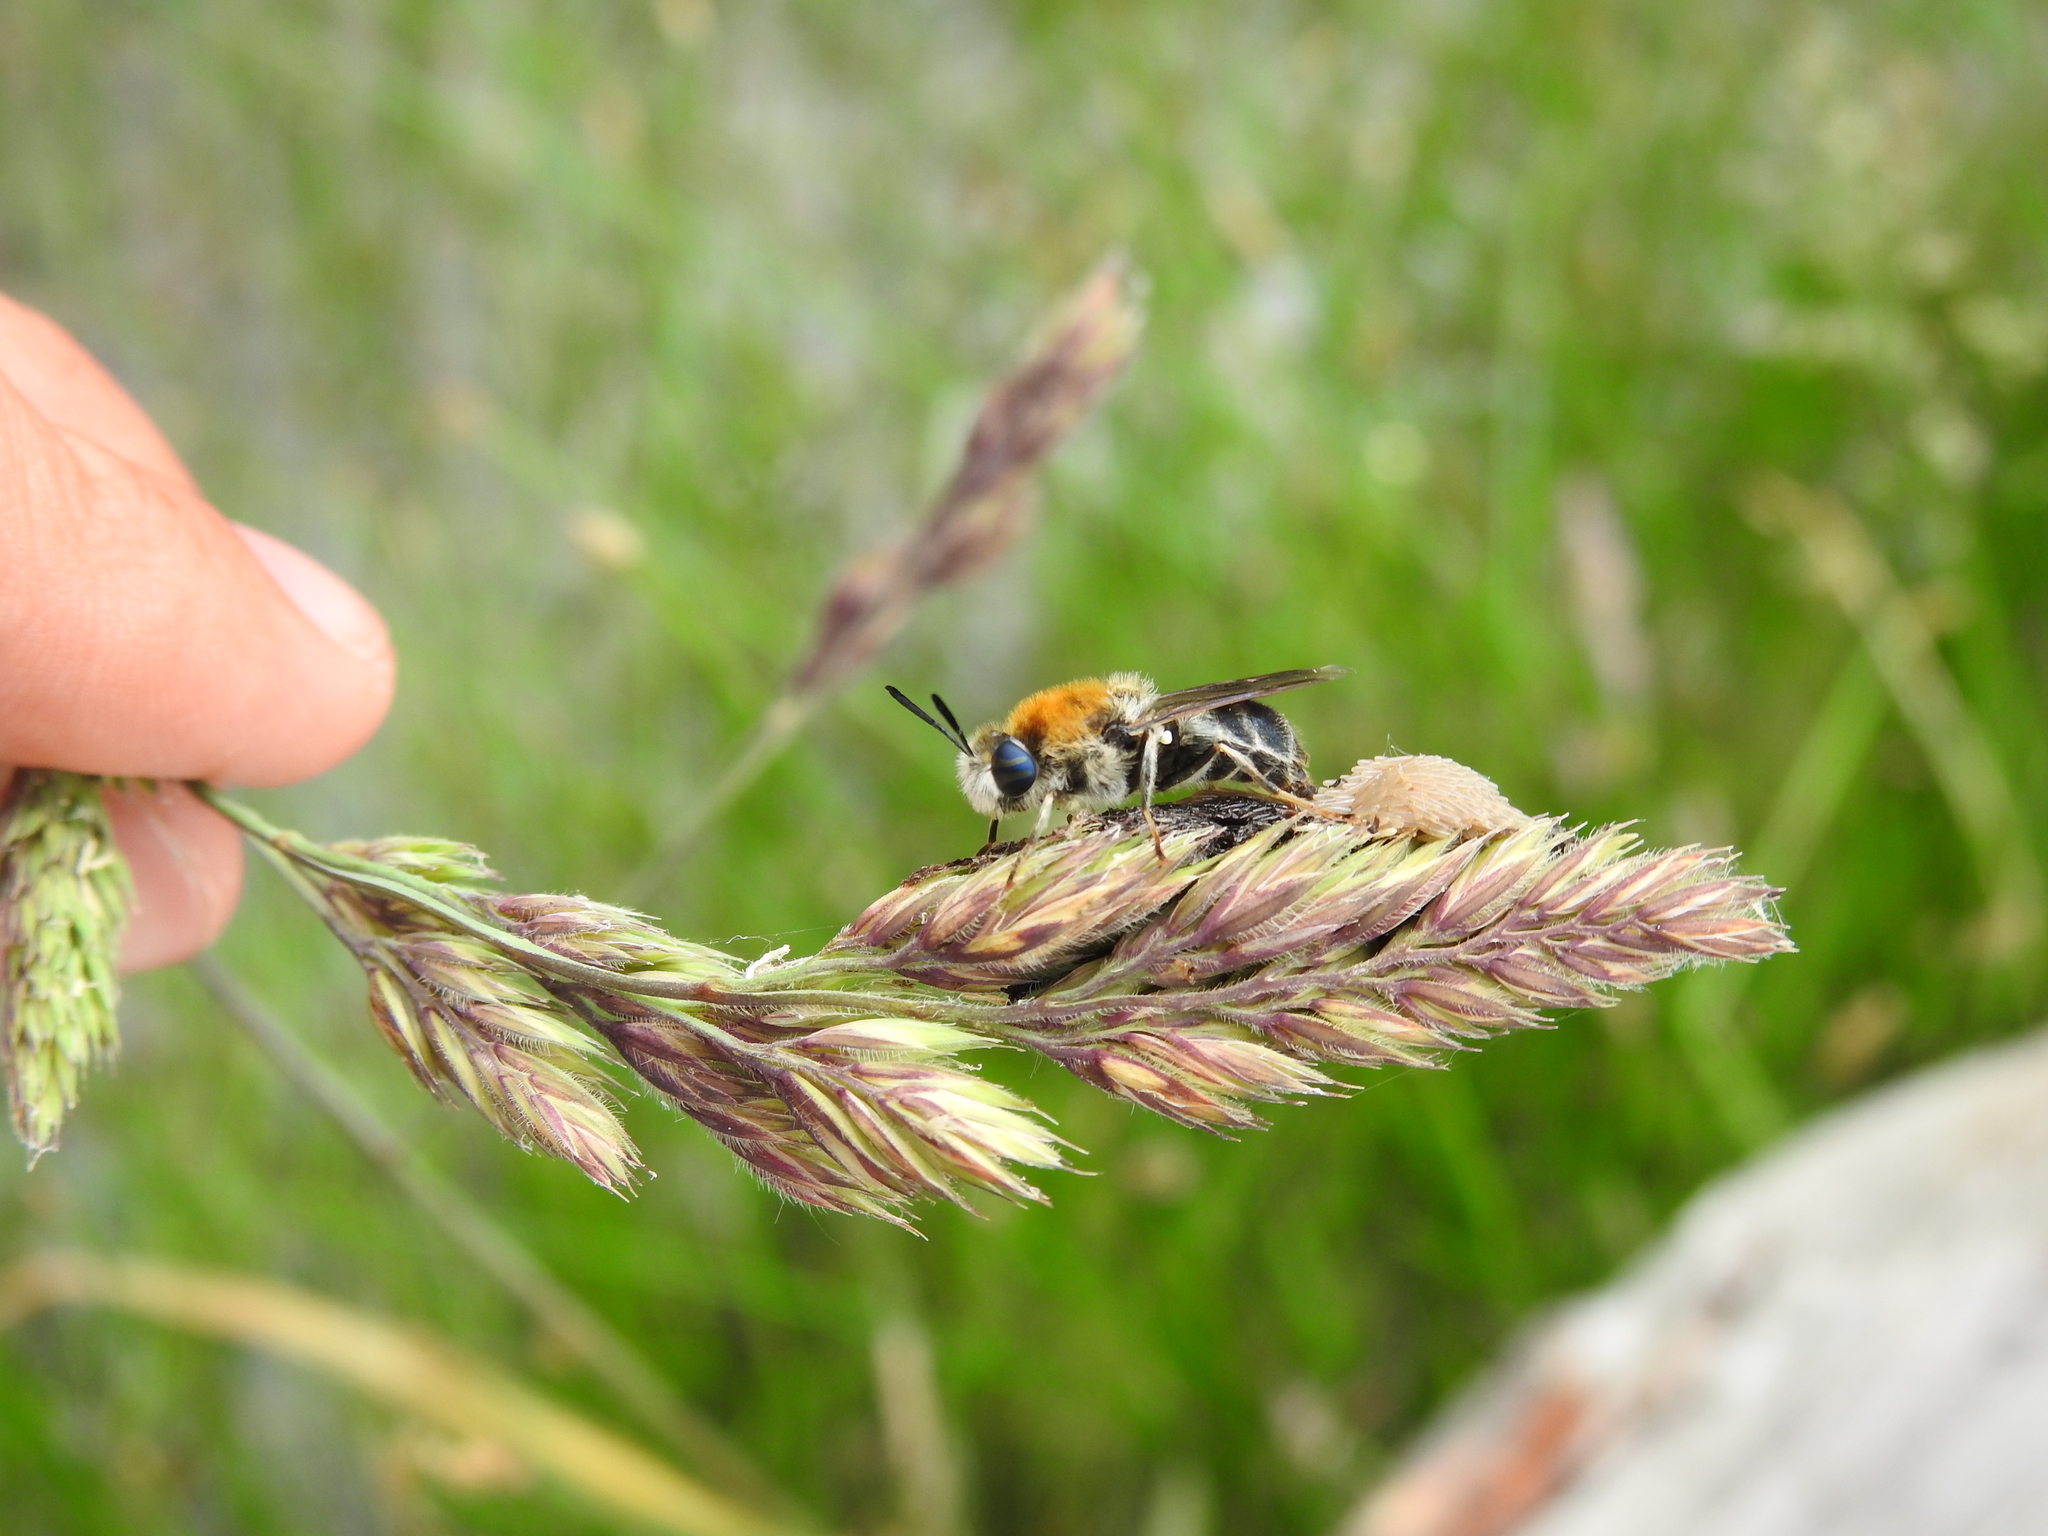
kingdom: Animalia
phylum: Arthropoda
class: Insecta
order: Diptera
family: Stratiomyidae
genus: Stratiomys
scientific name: Stratiomys longicornis
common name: Long-horned general
